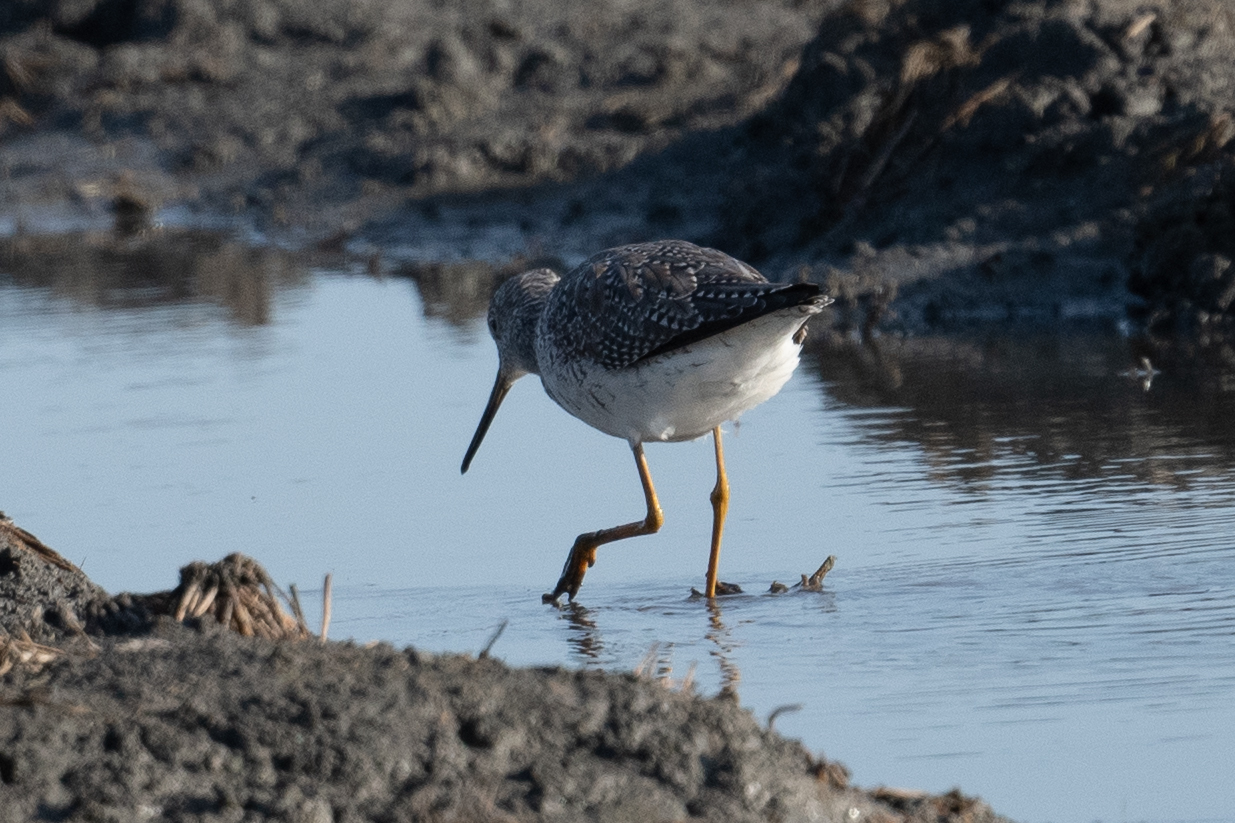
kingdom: Animalia
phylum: Chordata
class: Aves
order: Charadriiformes
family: Scolopacidae
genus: Tringa
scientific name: Tringa melanoleuca
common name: Greater yellowlegs
